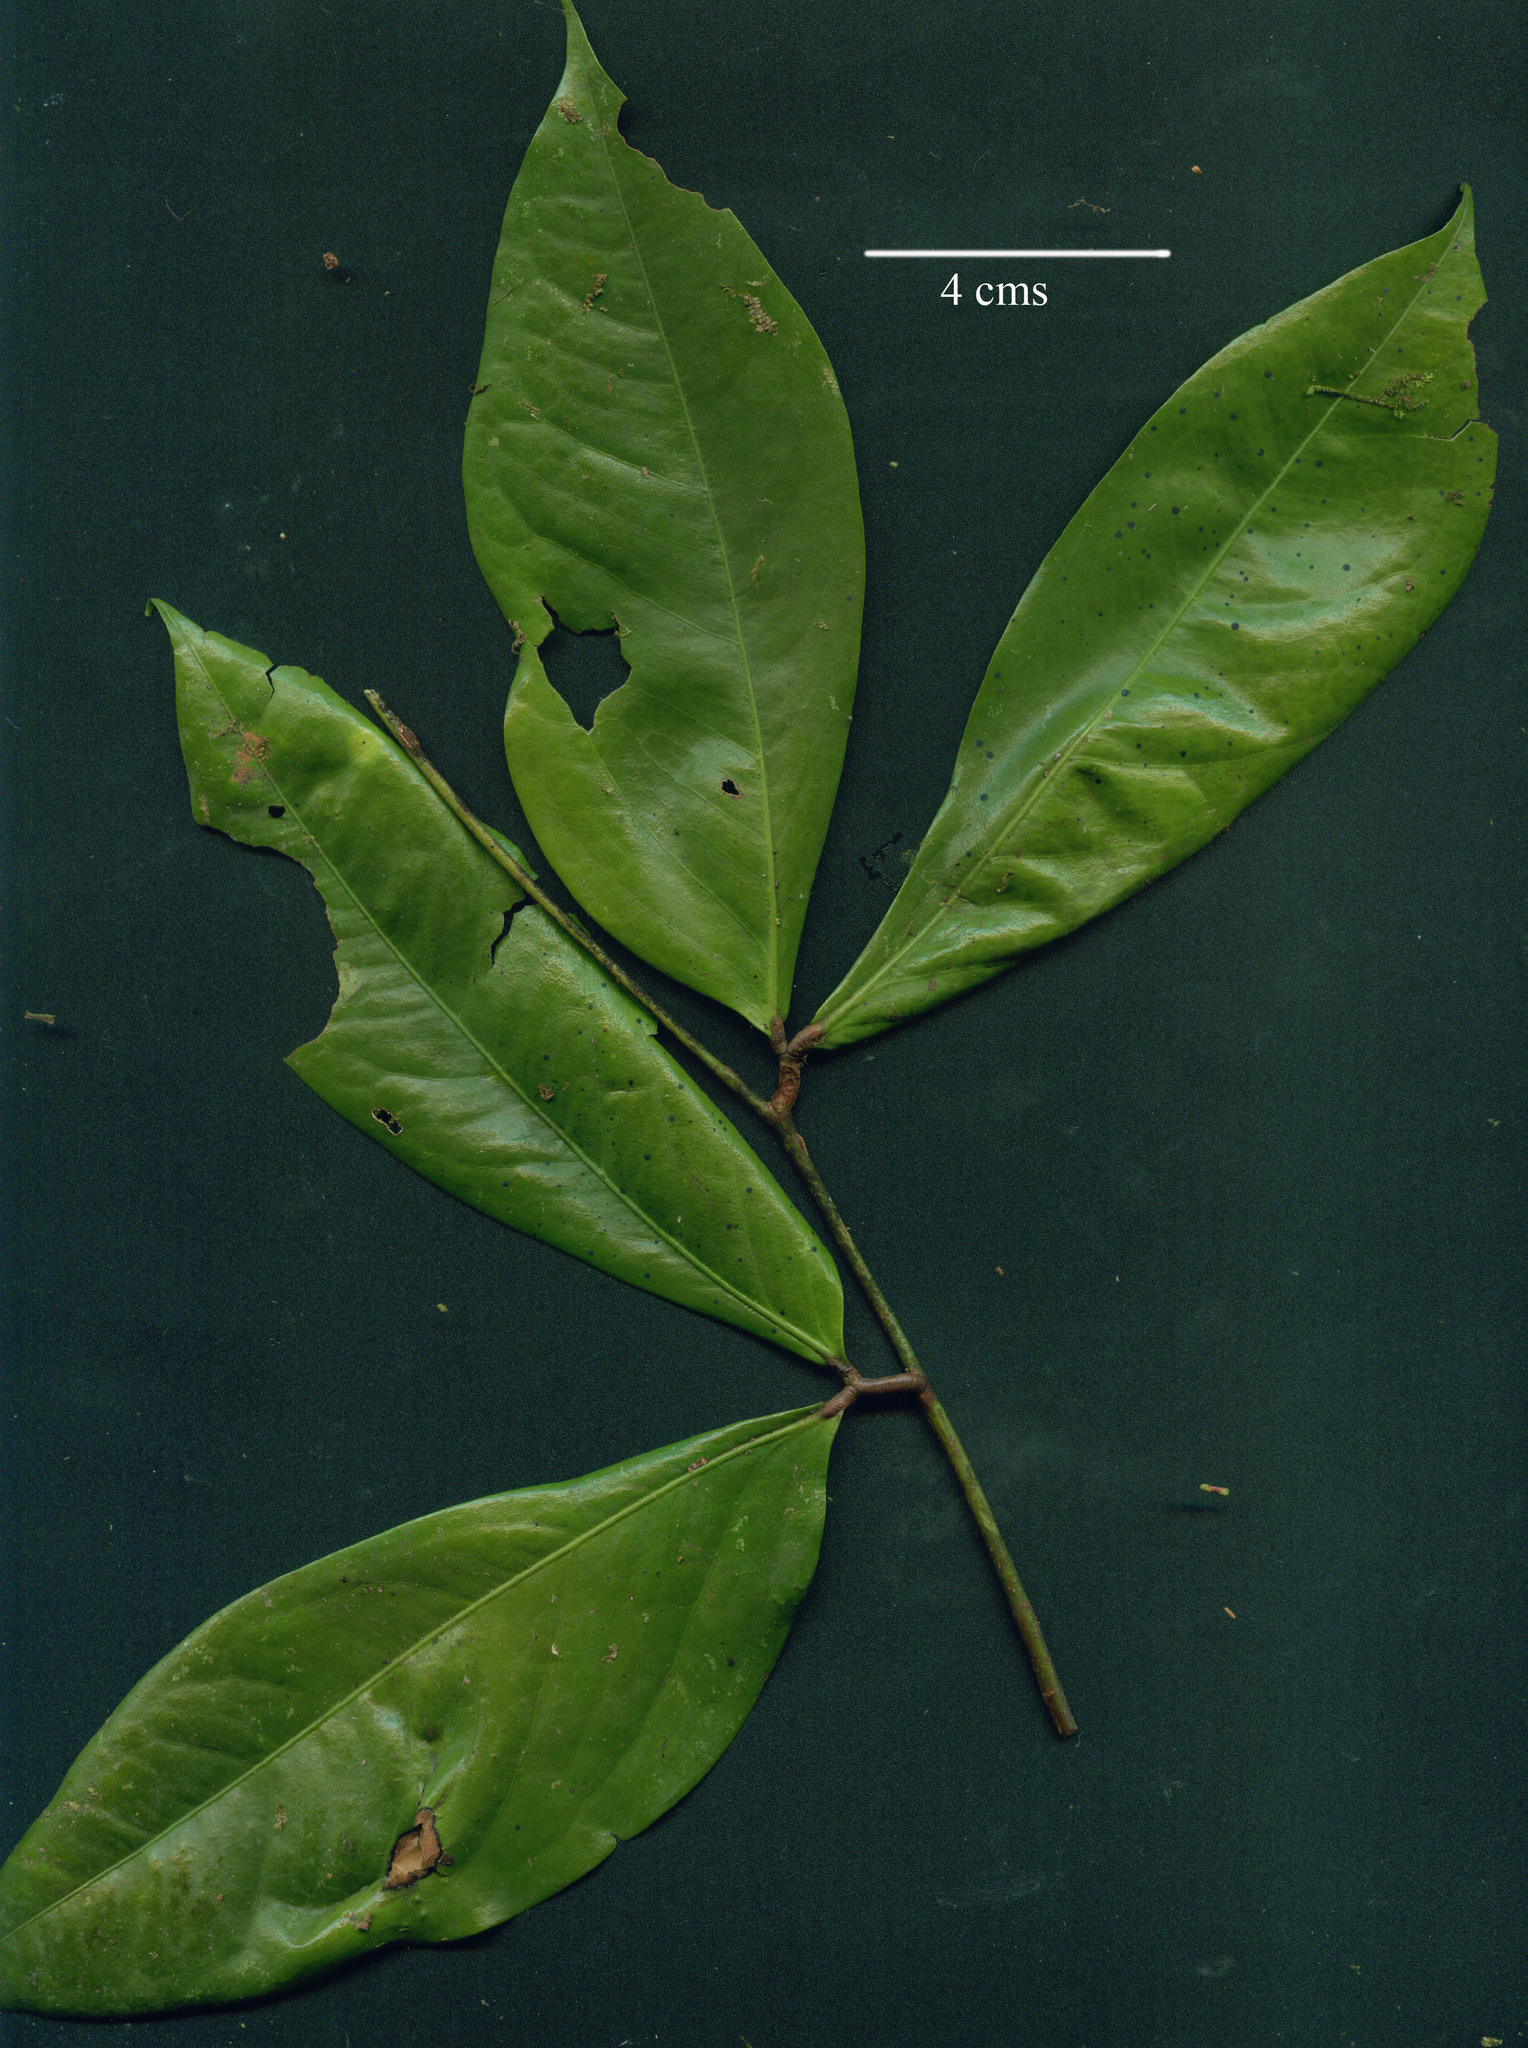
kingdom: Plantae
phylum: Tracheophyta
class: Magnoliopsida
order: Fabales
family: Fabaceae
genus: Cynometra
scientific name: Cynometra hemitomophylla
